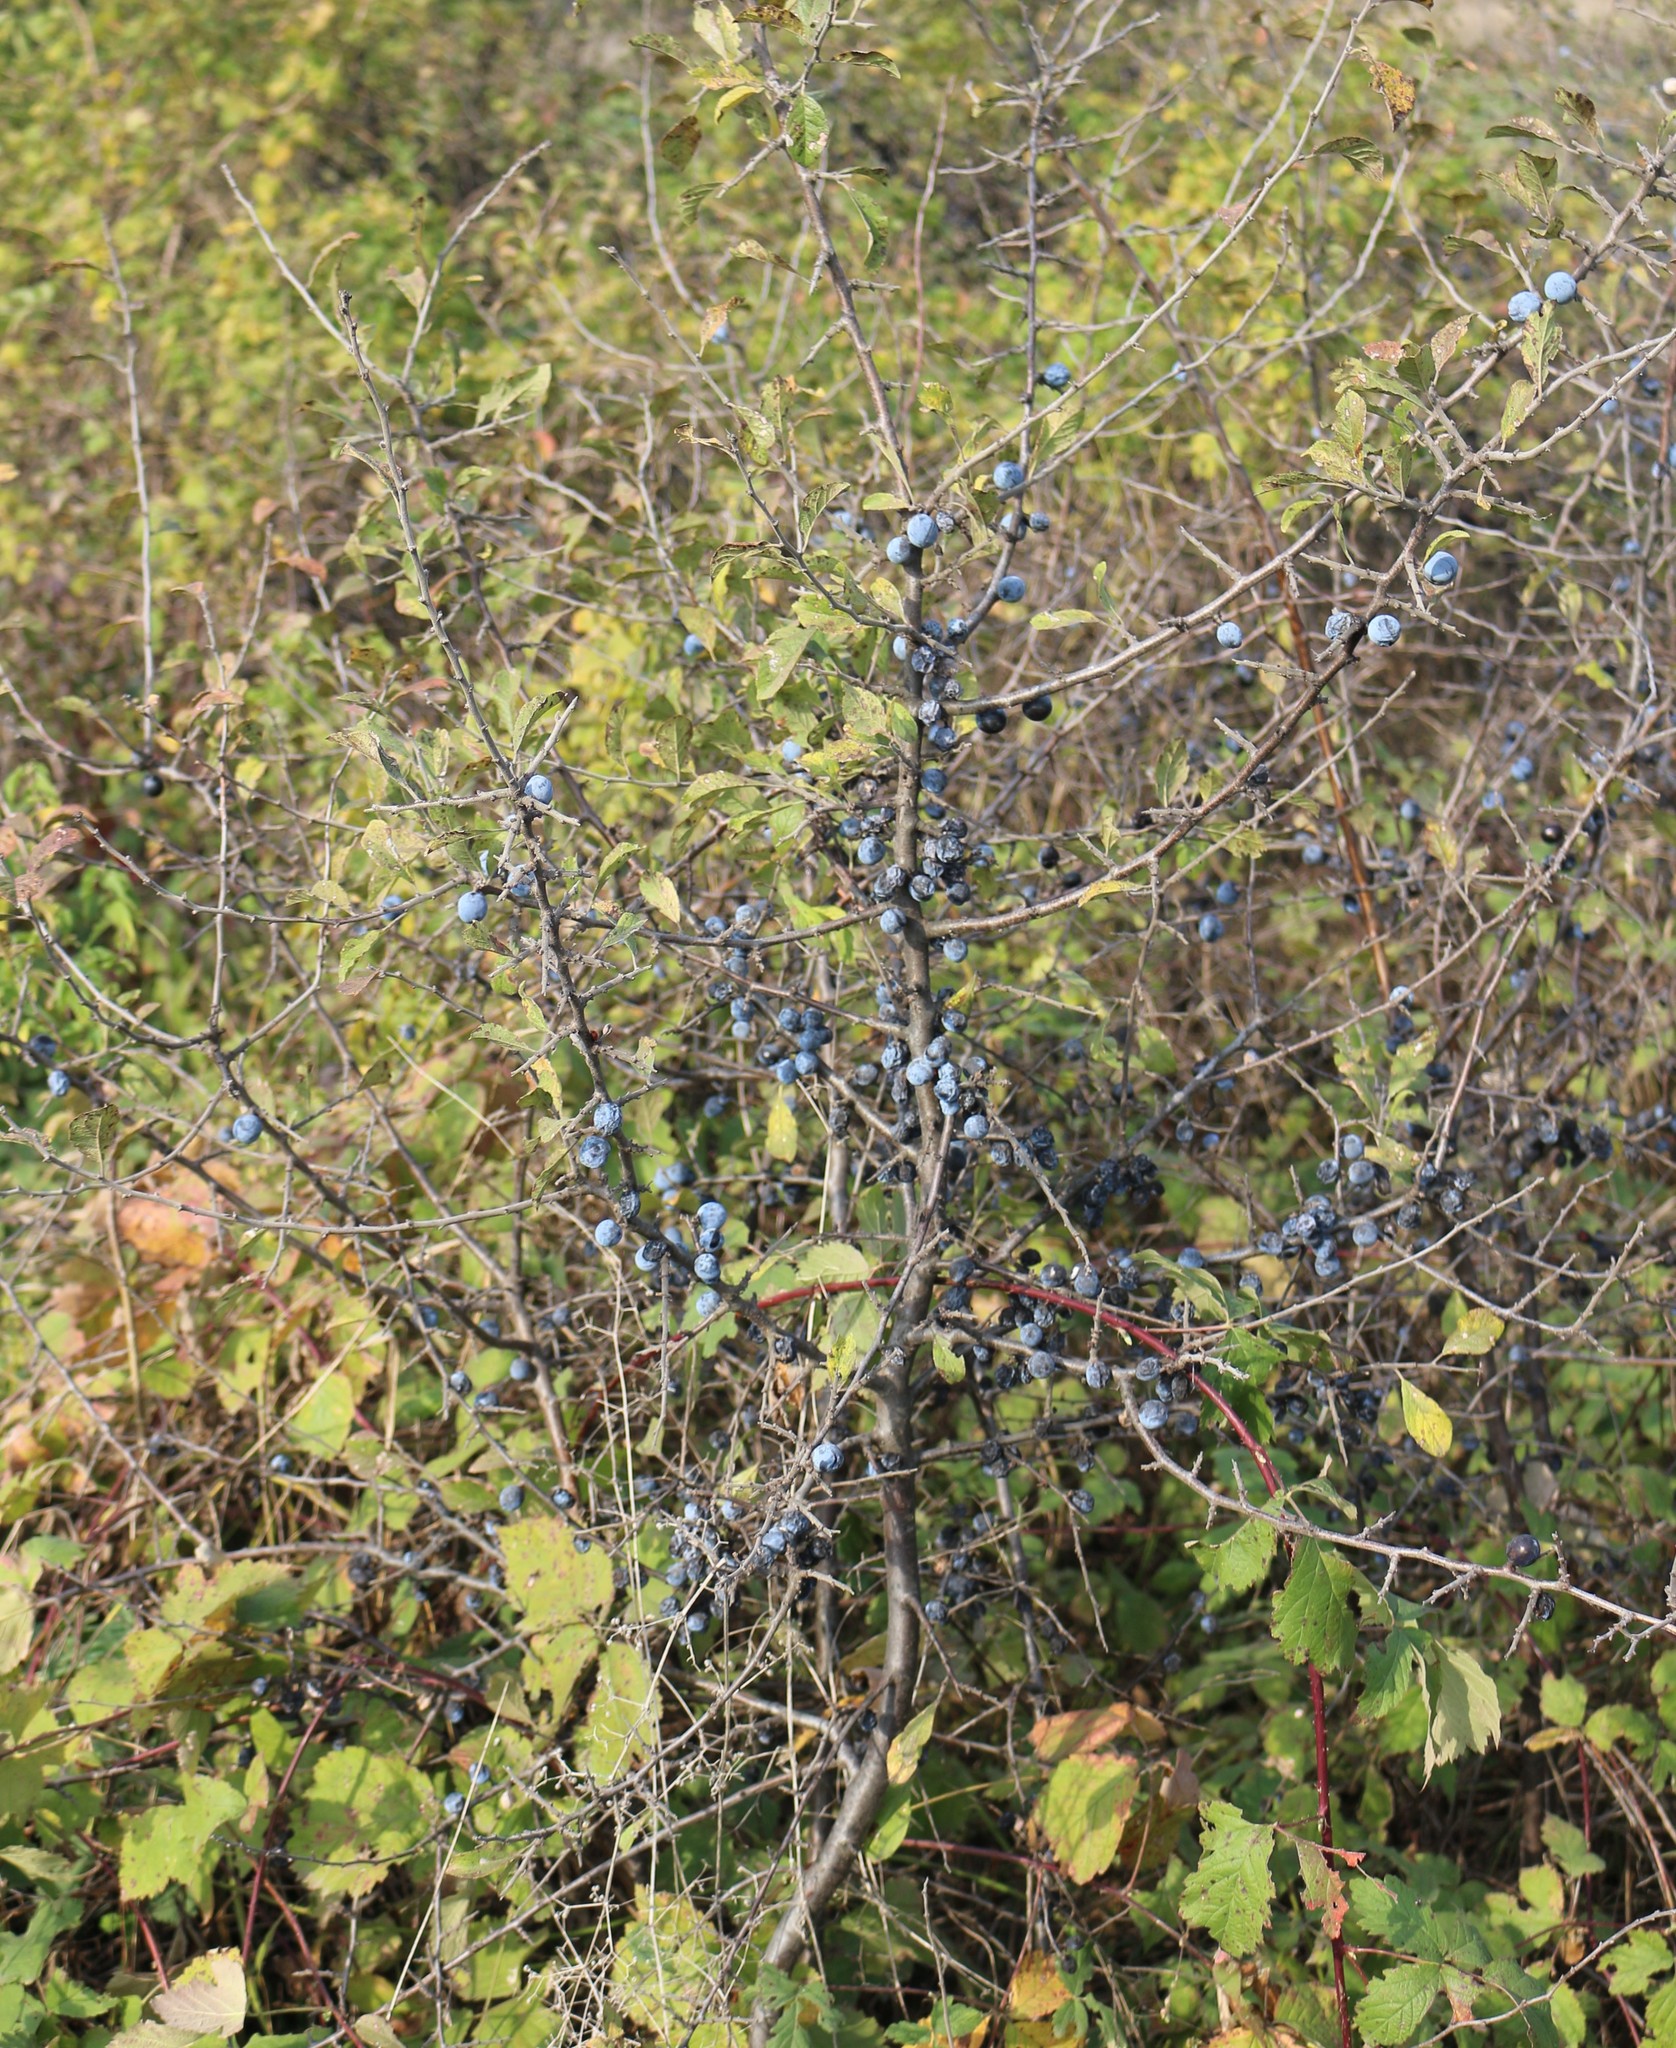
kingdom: Plantae
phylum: Tracheophyta
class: Magnoliopsida
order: Rosales
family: Rosaceae
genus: Prunus
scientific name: Prunus spinosa
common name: Blackthorn
